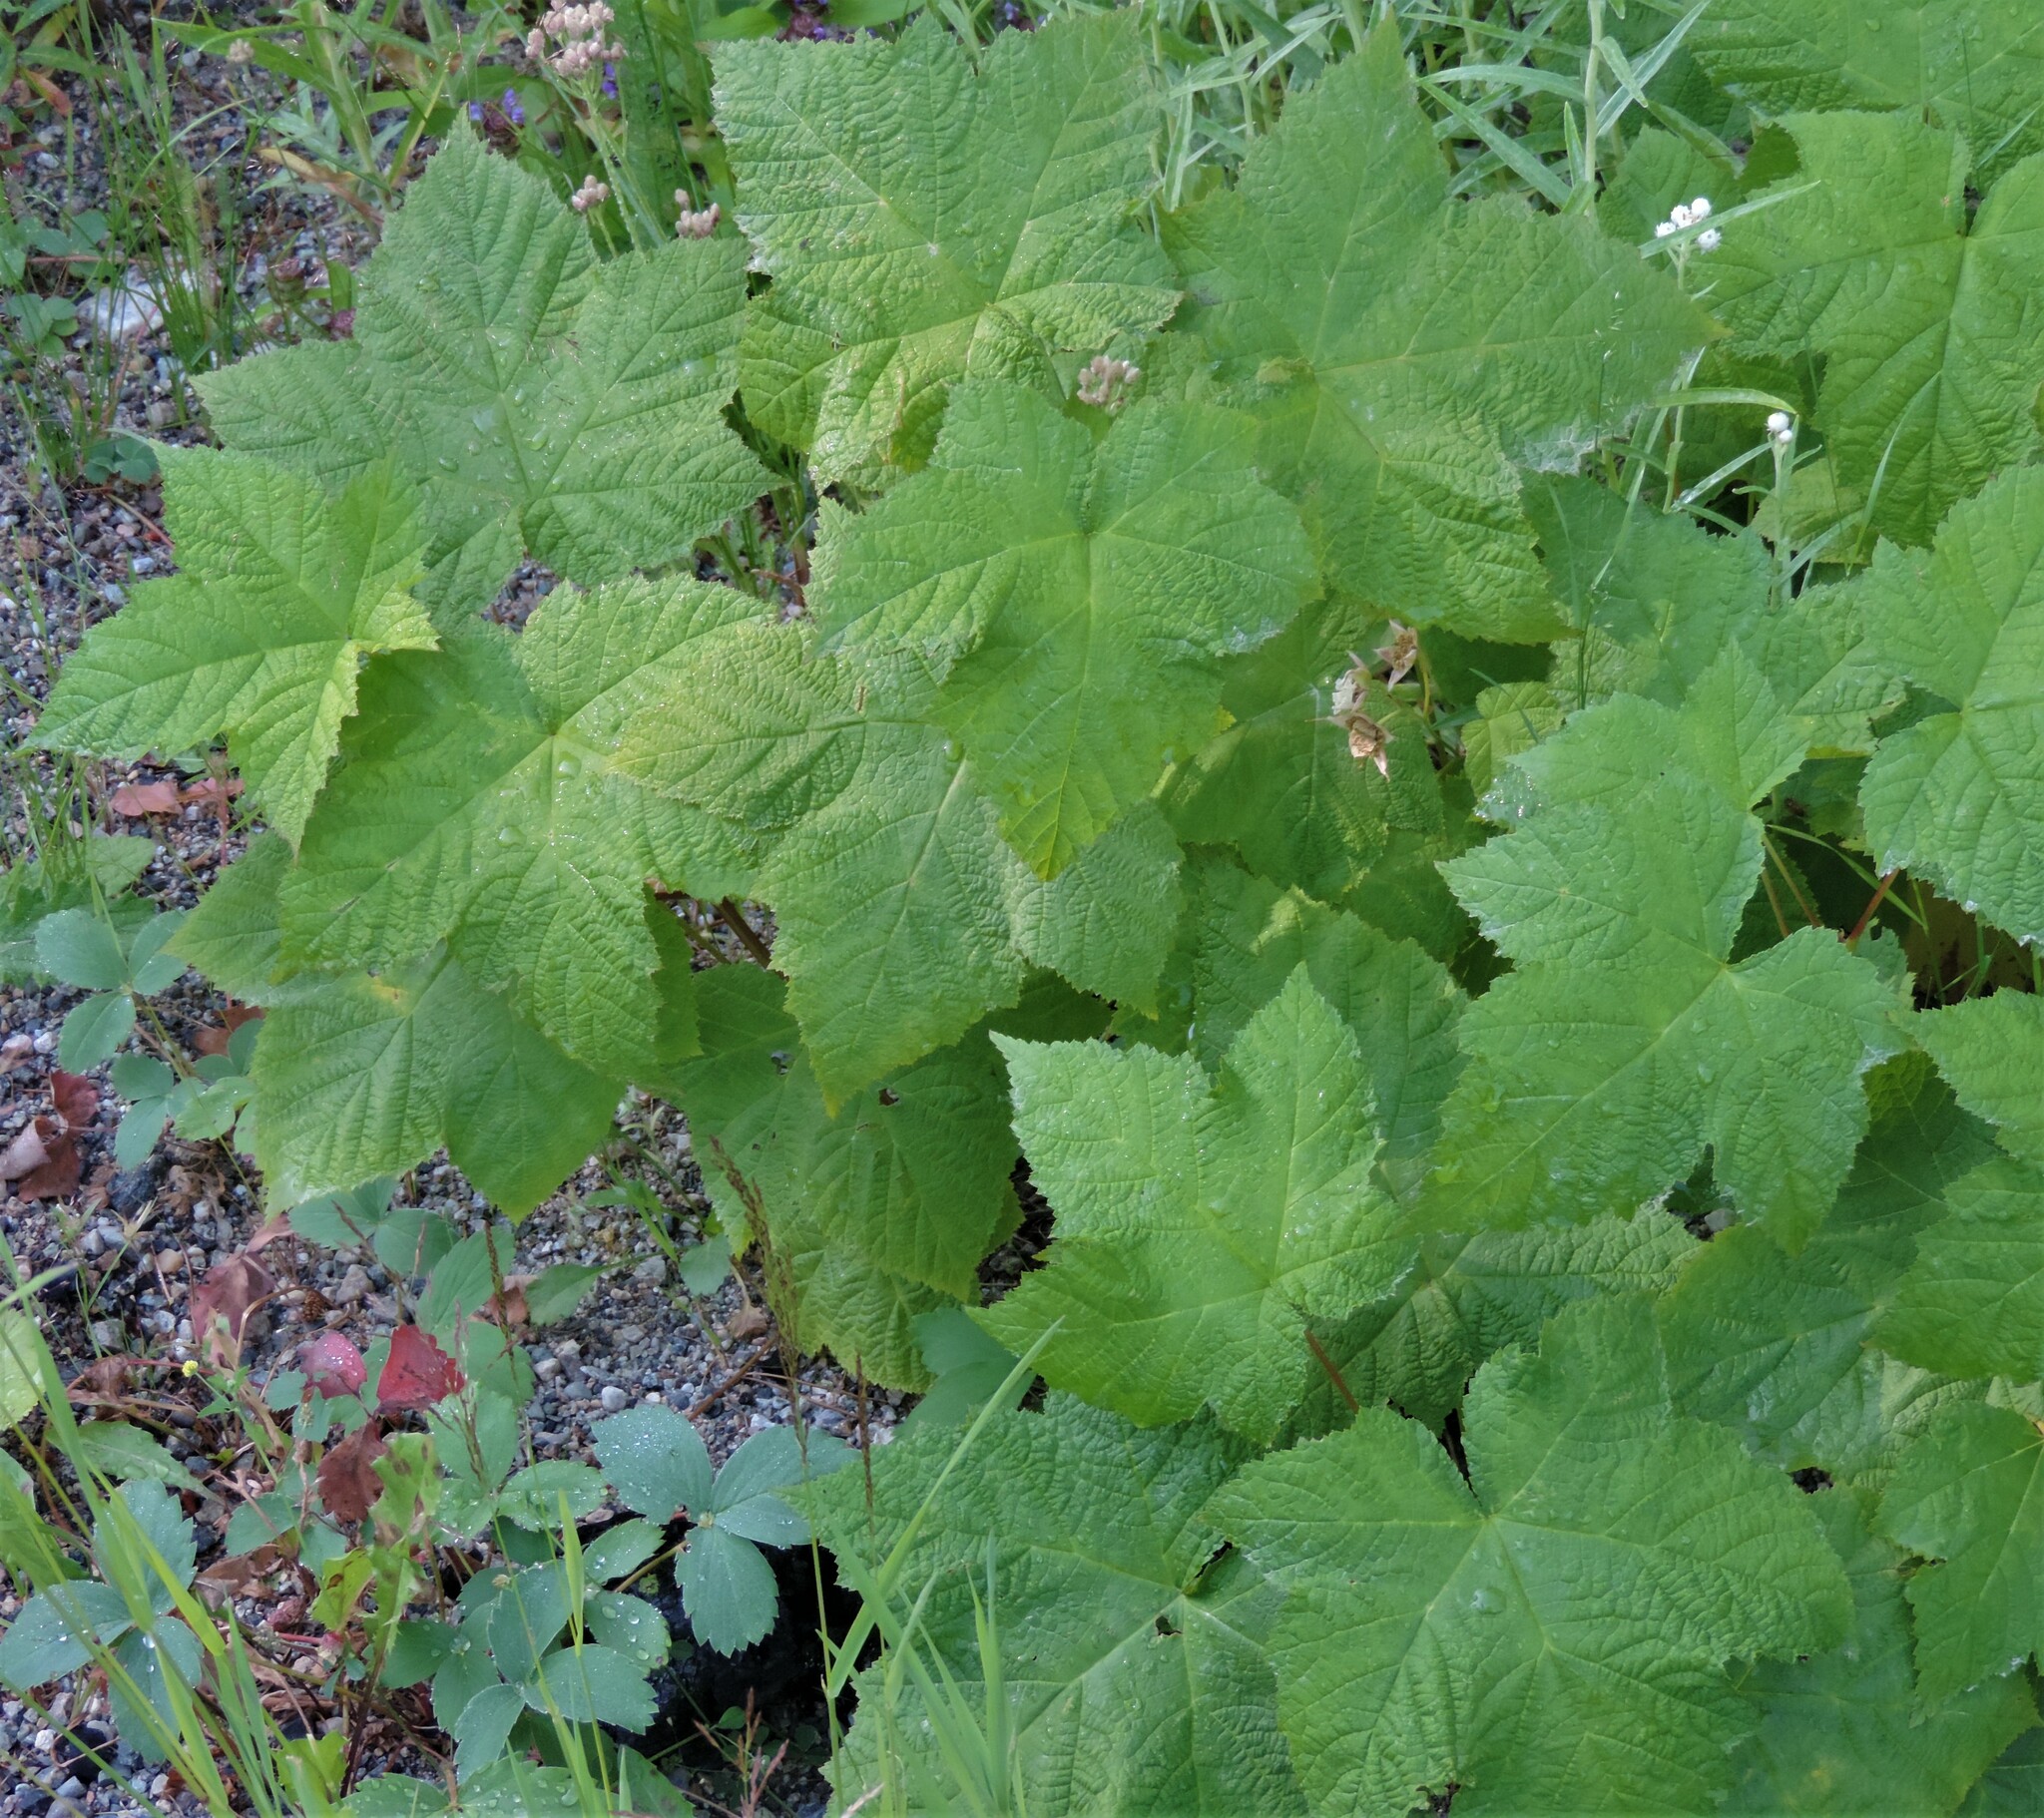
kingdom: Plantae
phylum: Tracheophyta
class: Magnoliopsida
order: Rosales
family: Rosaceae
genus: Rubus
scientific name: Rubus parviflorus
